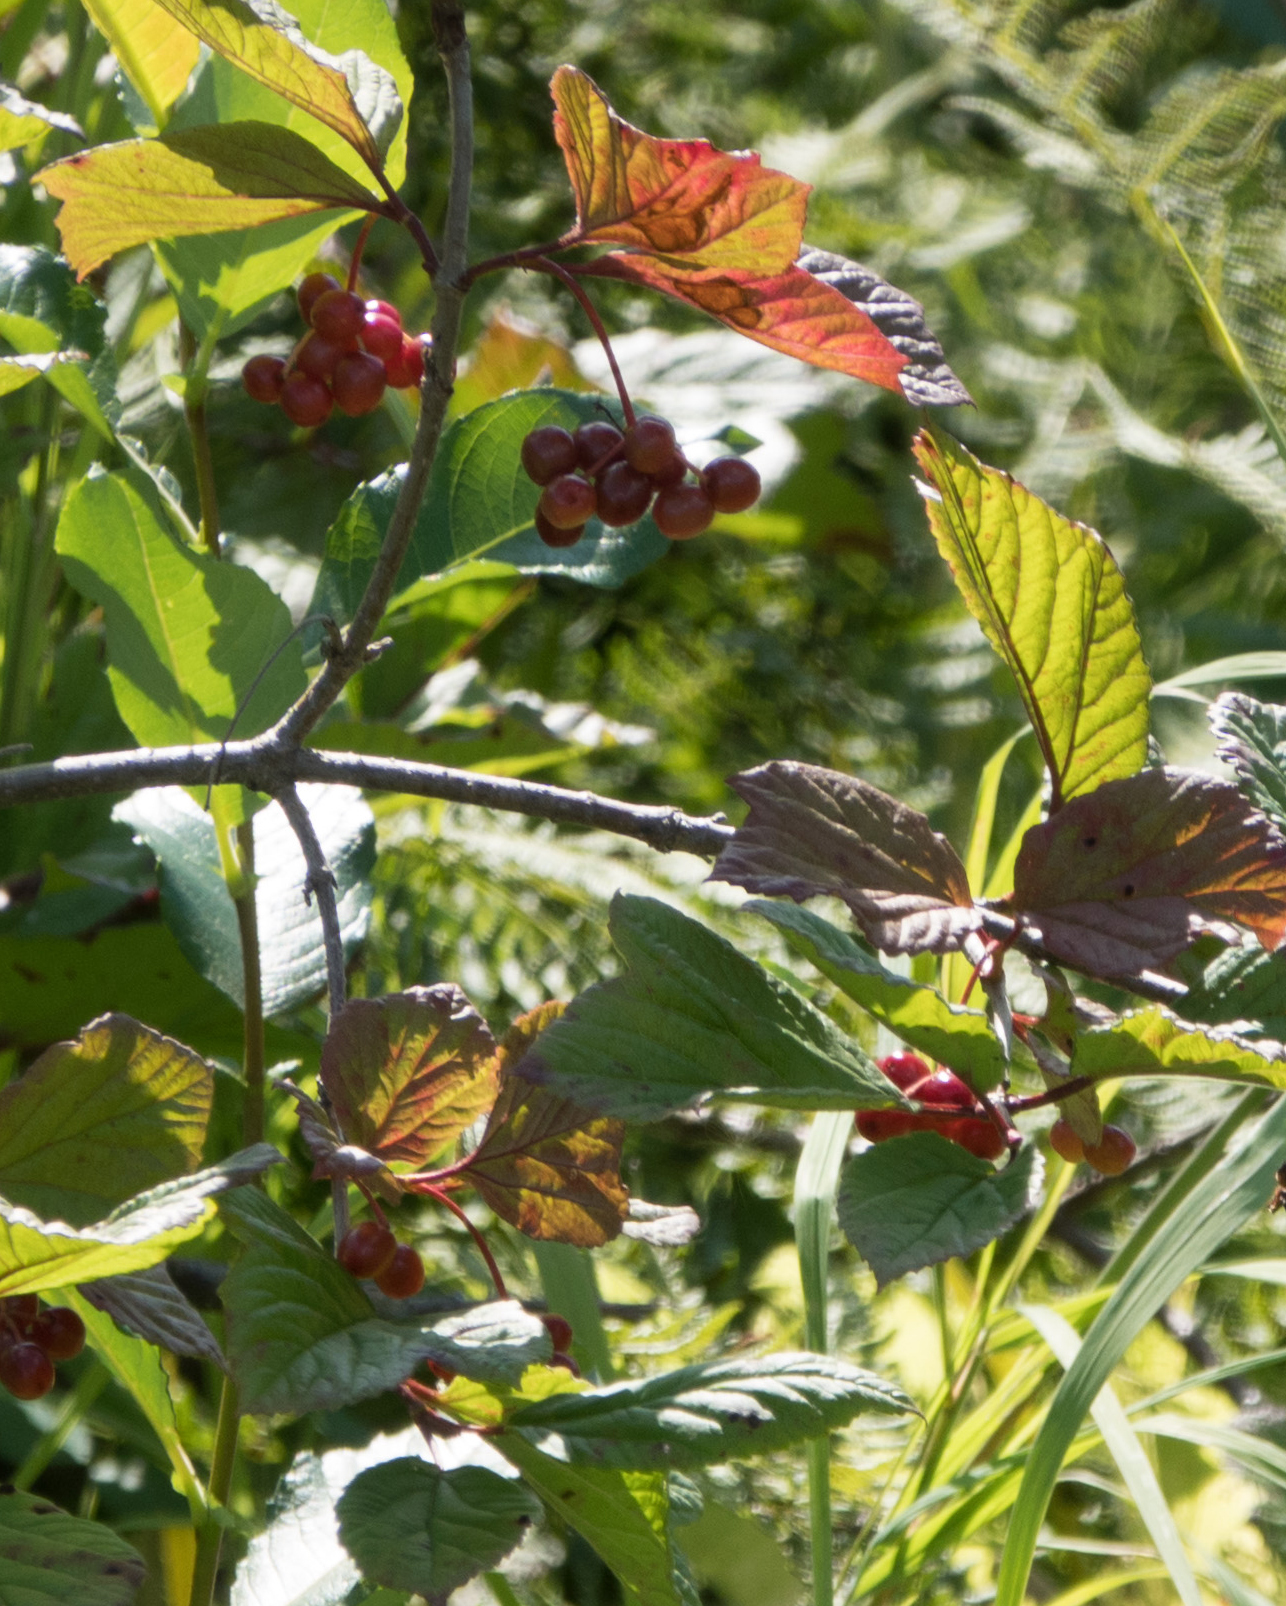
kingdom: Plantae
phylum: Tracheophyta
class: Magnoliopsida
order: Dipsacales
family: Viburnaceae
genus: Viburnum
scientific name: Viburnum edule
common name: Mooseberry
